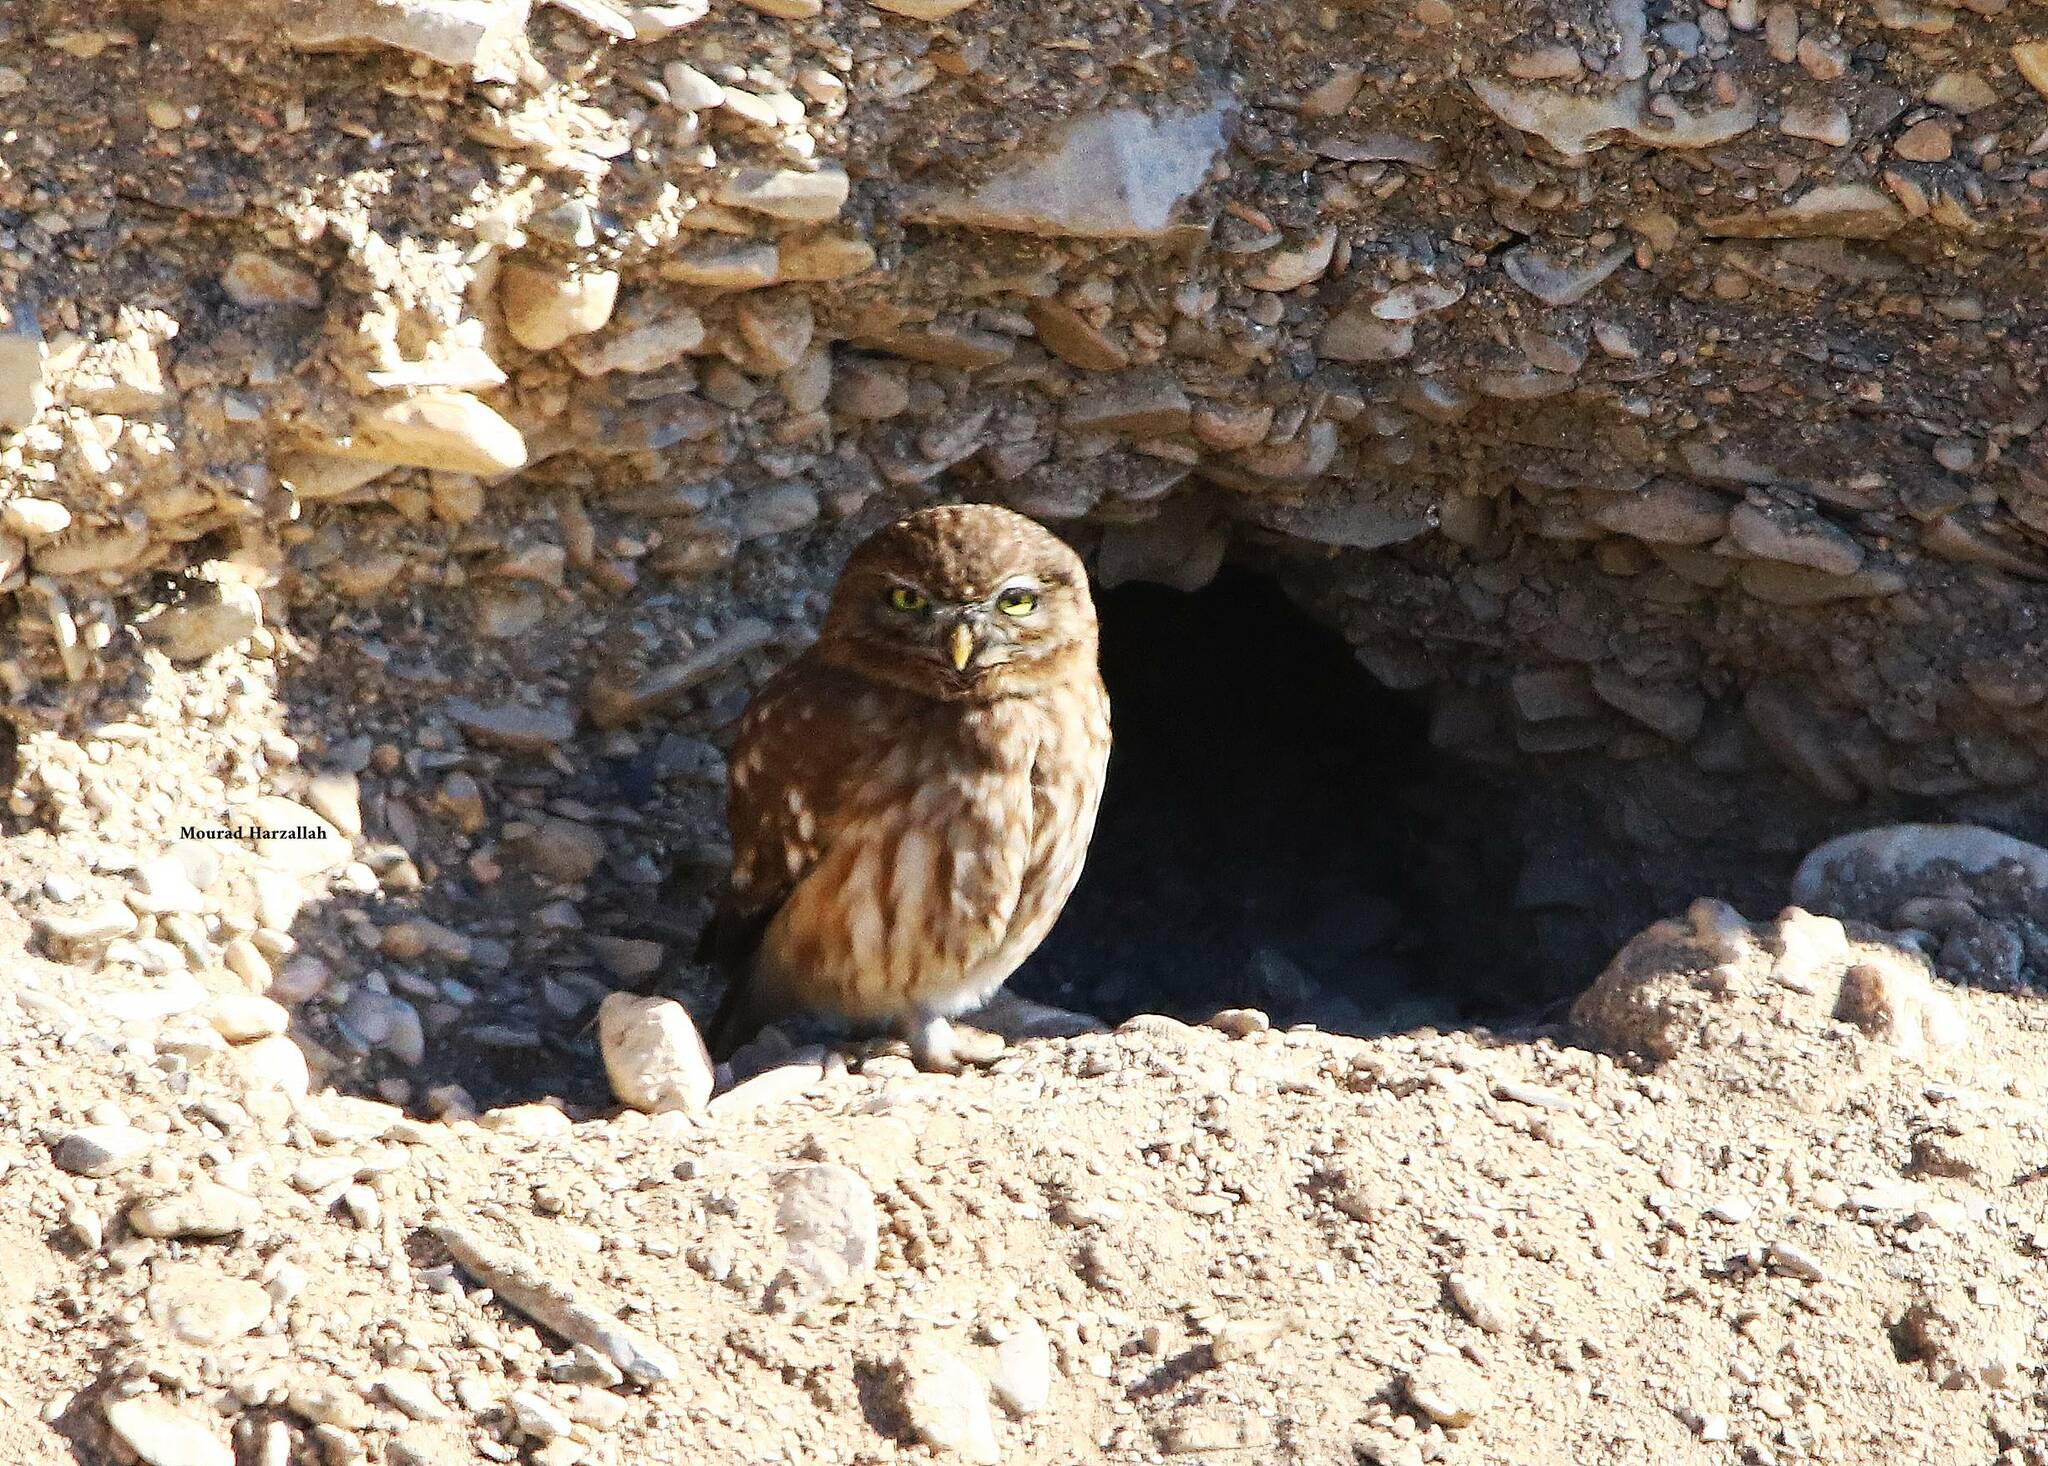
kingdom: Animalia
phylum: Chordata
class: Aves
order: Strigiformes
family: Strigidae
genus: Athene
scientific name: Athene noctua
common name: Little owl
